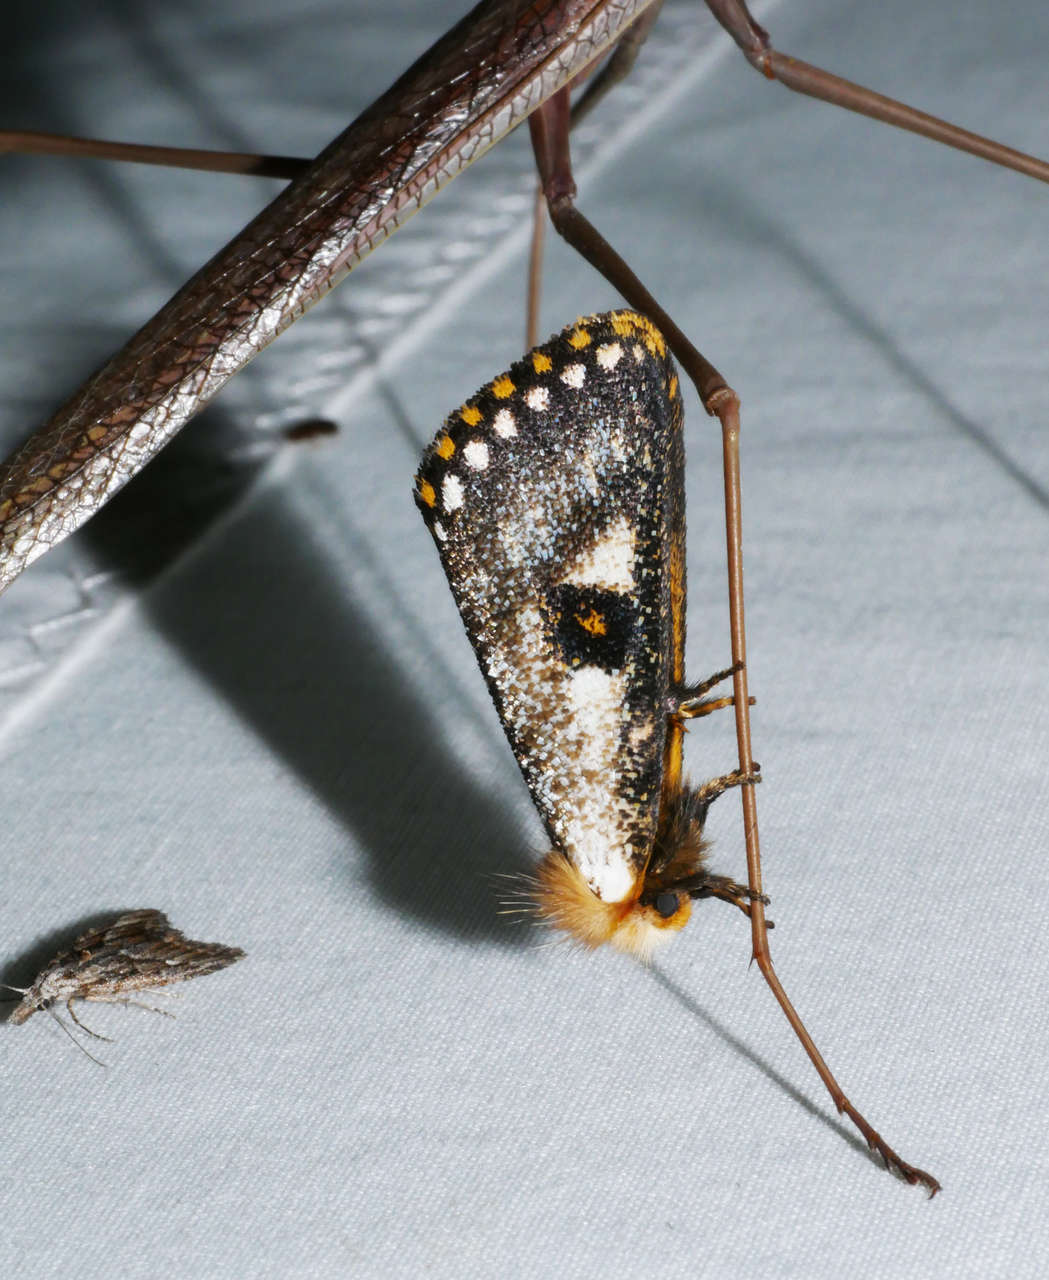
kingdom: Animalia
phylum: Arthropoda
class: Insecta
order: Lepidoptera
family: Notodontidae
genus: Epicoma
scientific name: Epicoma contristis
